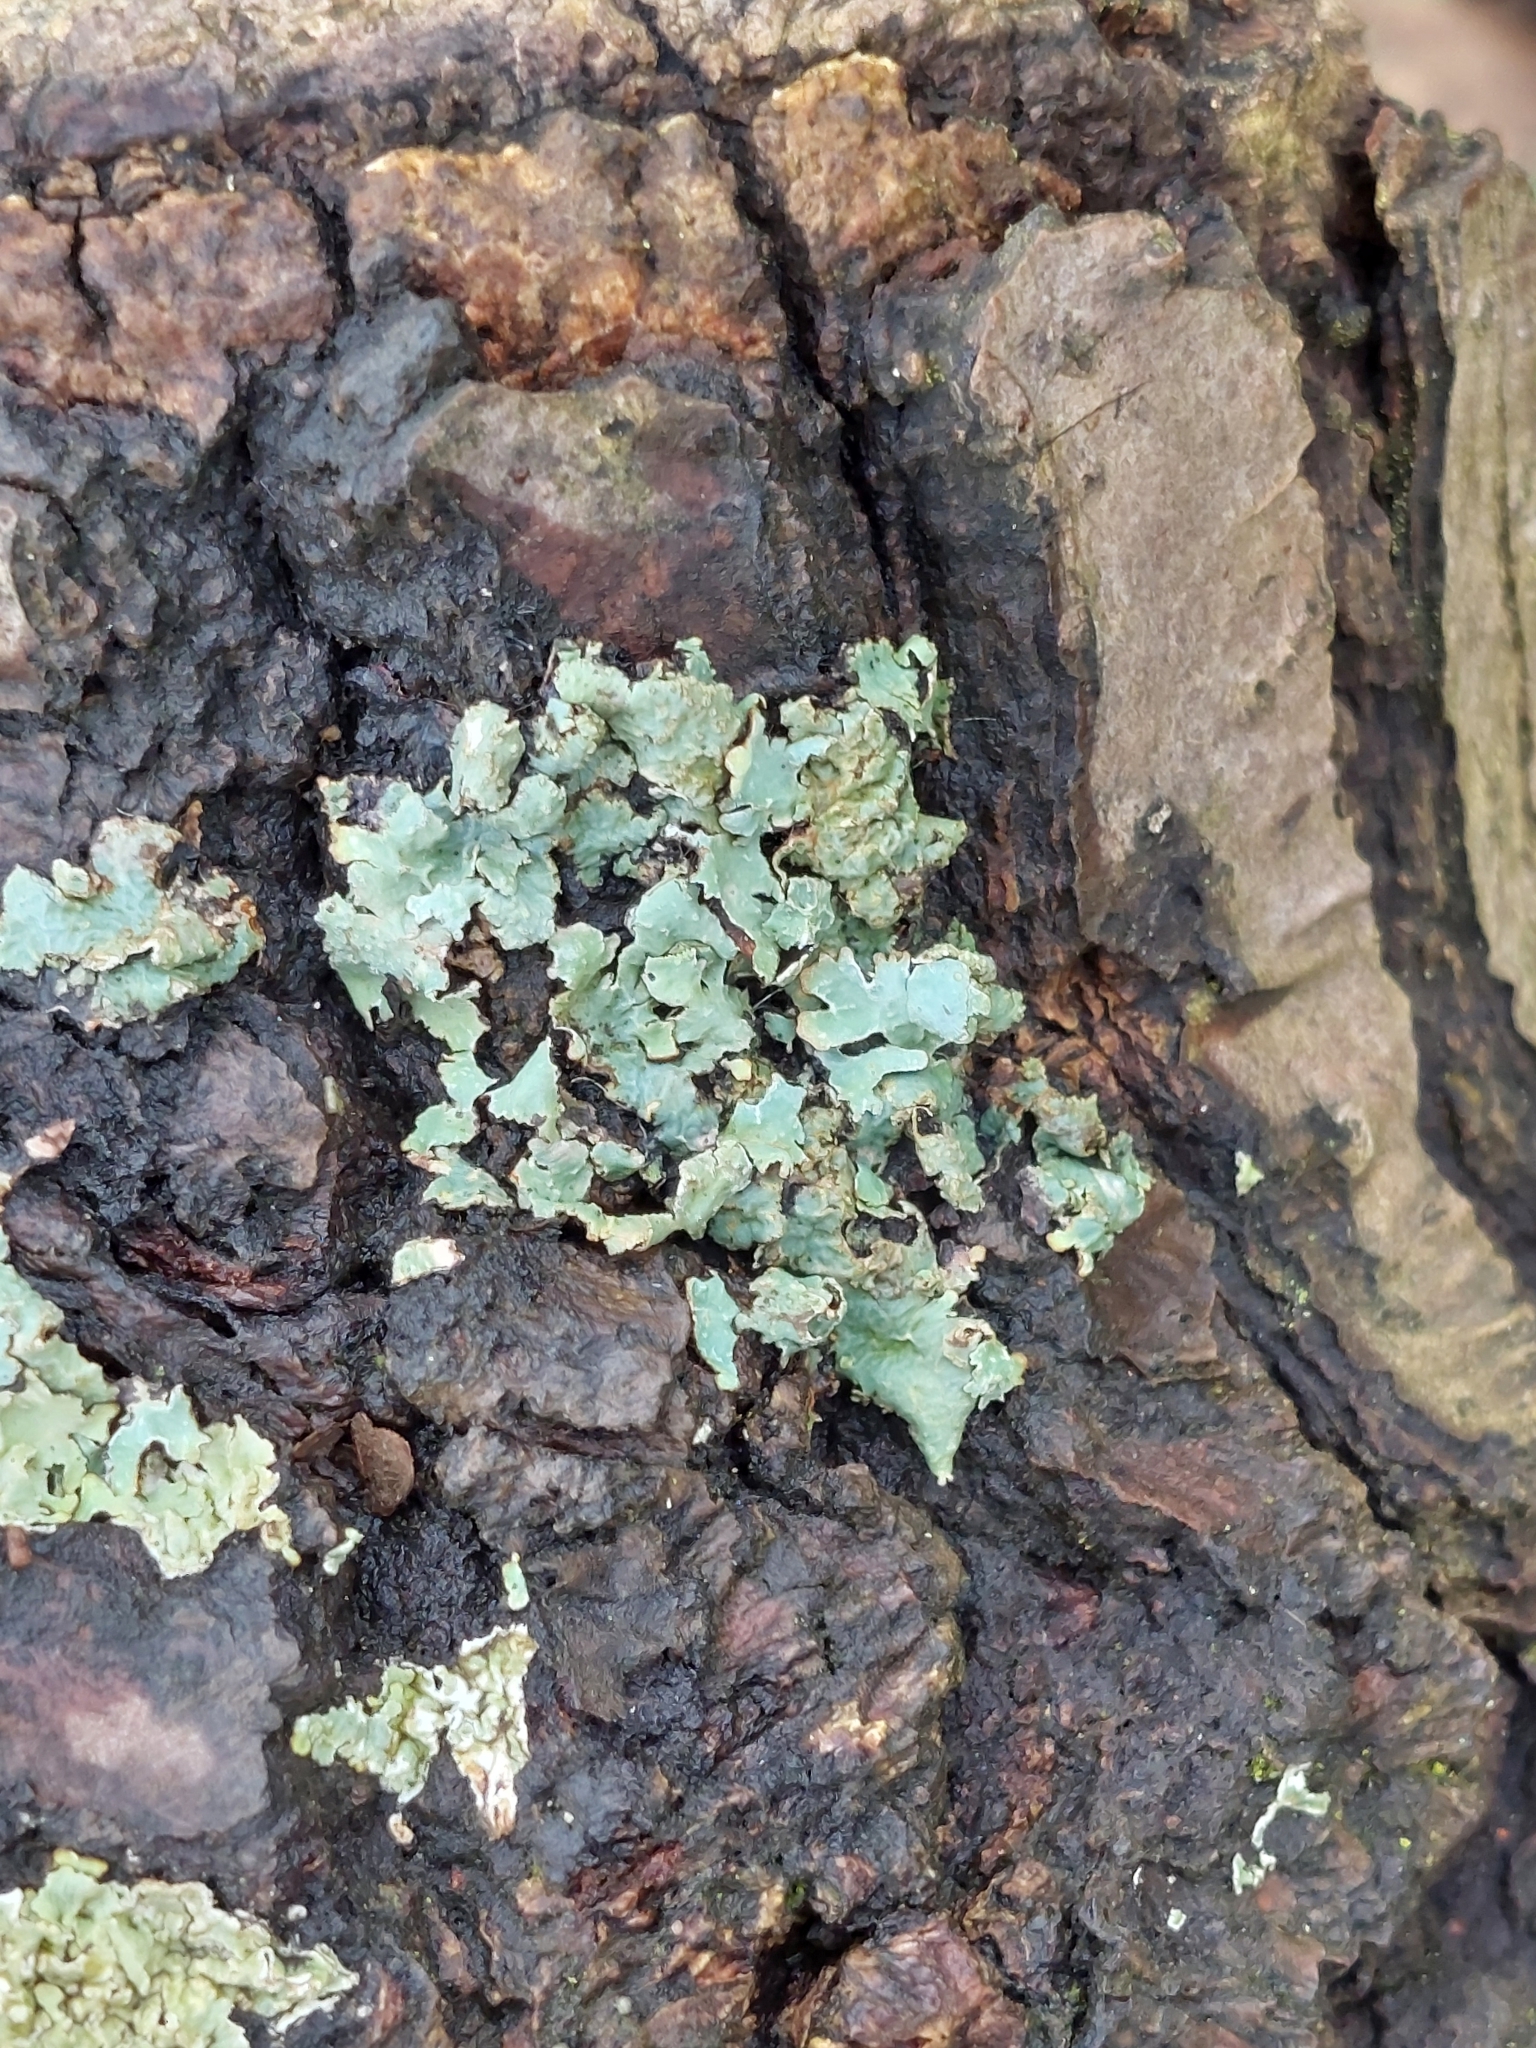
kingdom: Fungi
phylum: Ascomycota
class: Lecanoromycetes
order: Lecanorales
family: Parmeliaceae
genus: Parmelia
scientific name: Parmelia sulcata
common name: Netted shield lichen
